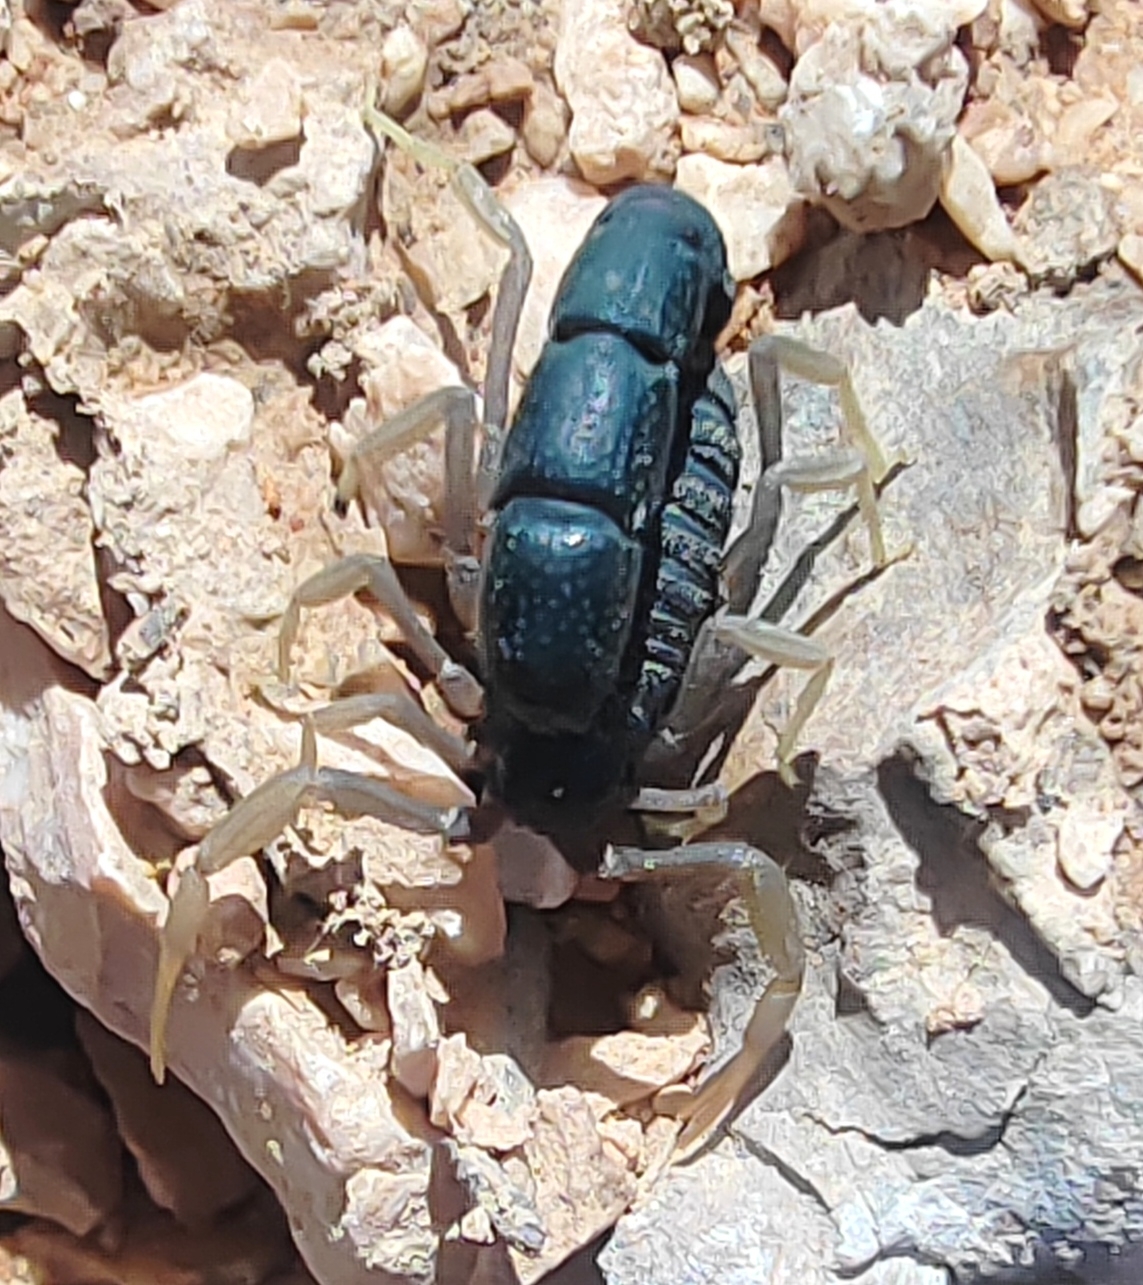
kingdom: Animalia
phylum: Arthropoda
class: Arachnida
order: Scorpiones
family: Buthidae
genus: Orthochirus
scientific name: Orthochirus glabrifrons
